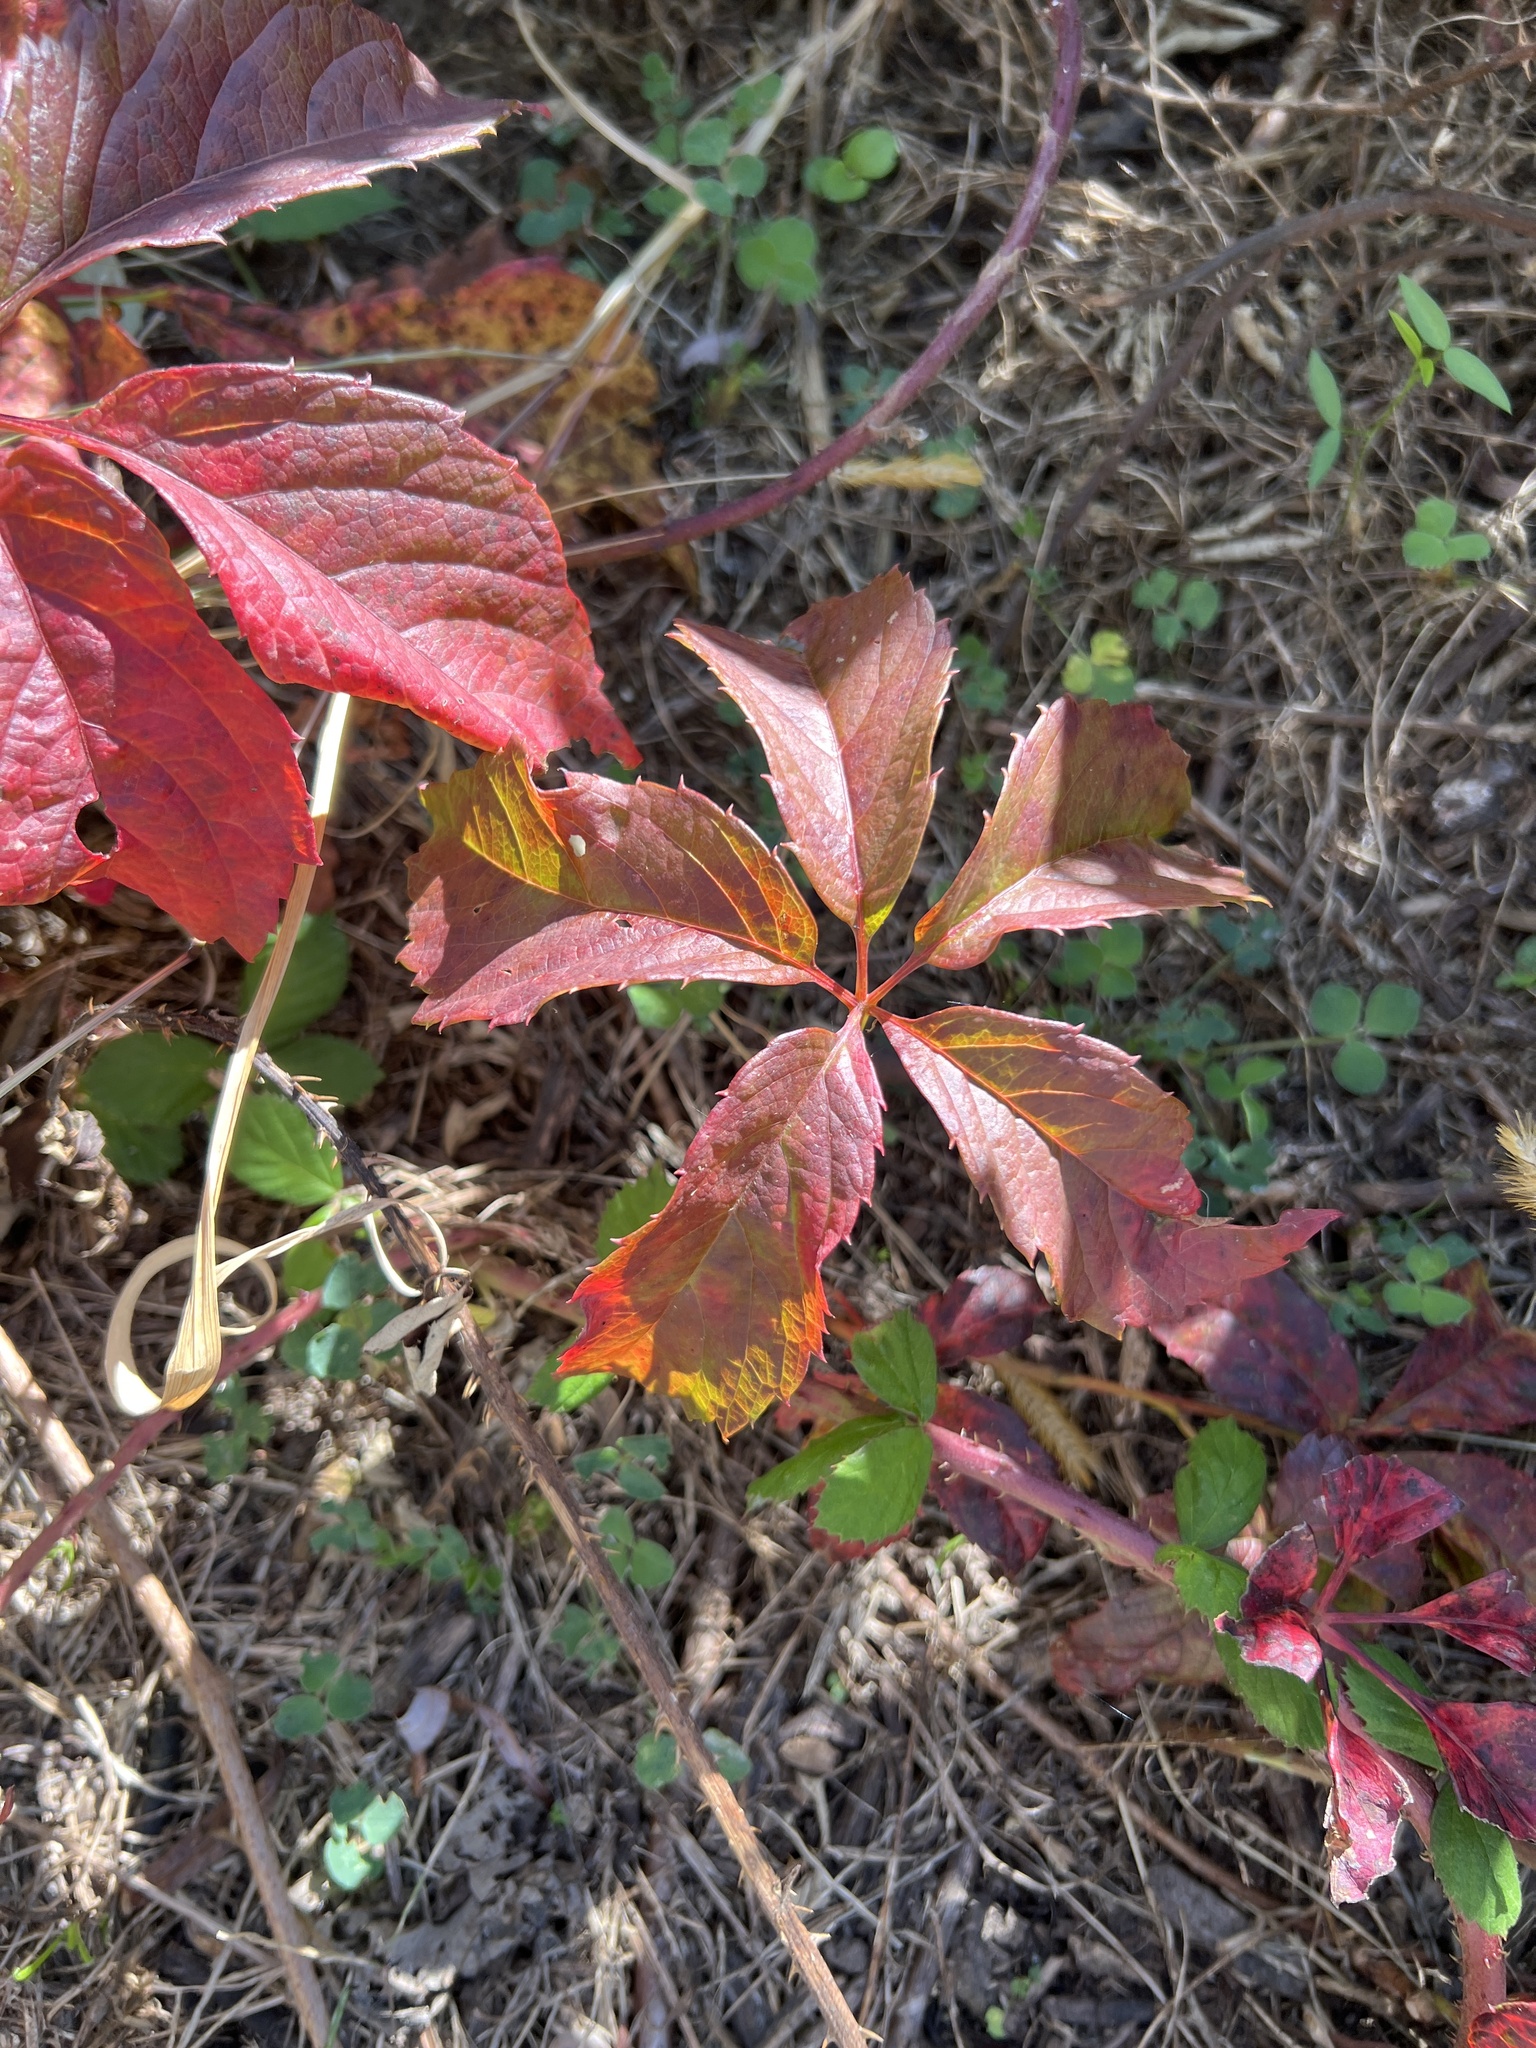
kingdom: Plantae
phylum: Tracheophyta
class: Magnoliopsida
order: Vitales
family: Vitaceae
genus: Parthenocissus
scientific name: Parthenocissus quinquefolia
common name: Virginia-creeper
